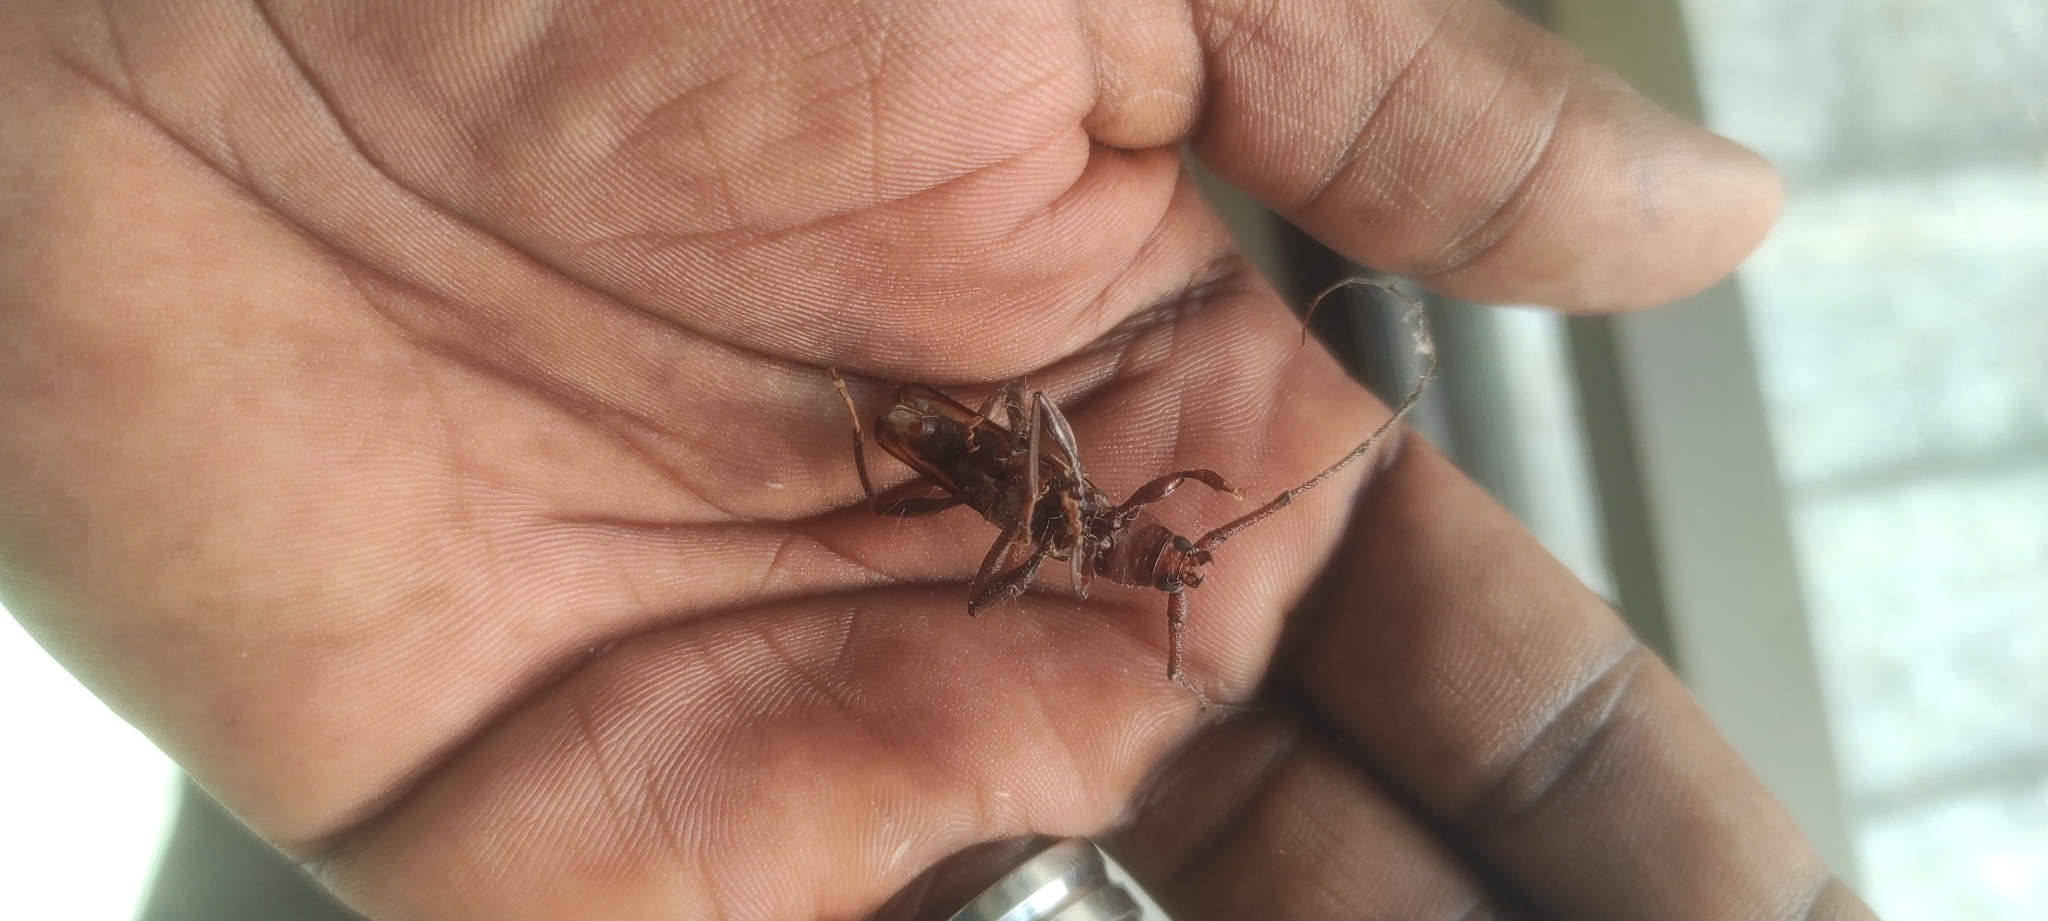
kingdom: Animalia
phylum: Arthropoda
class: Insecta
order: Coleoptera
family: Cerambycidae
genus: Xystrocera
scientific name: Xystrocera globosa
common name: Peach-tree longhorn
